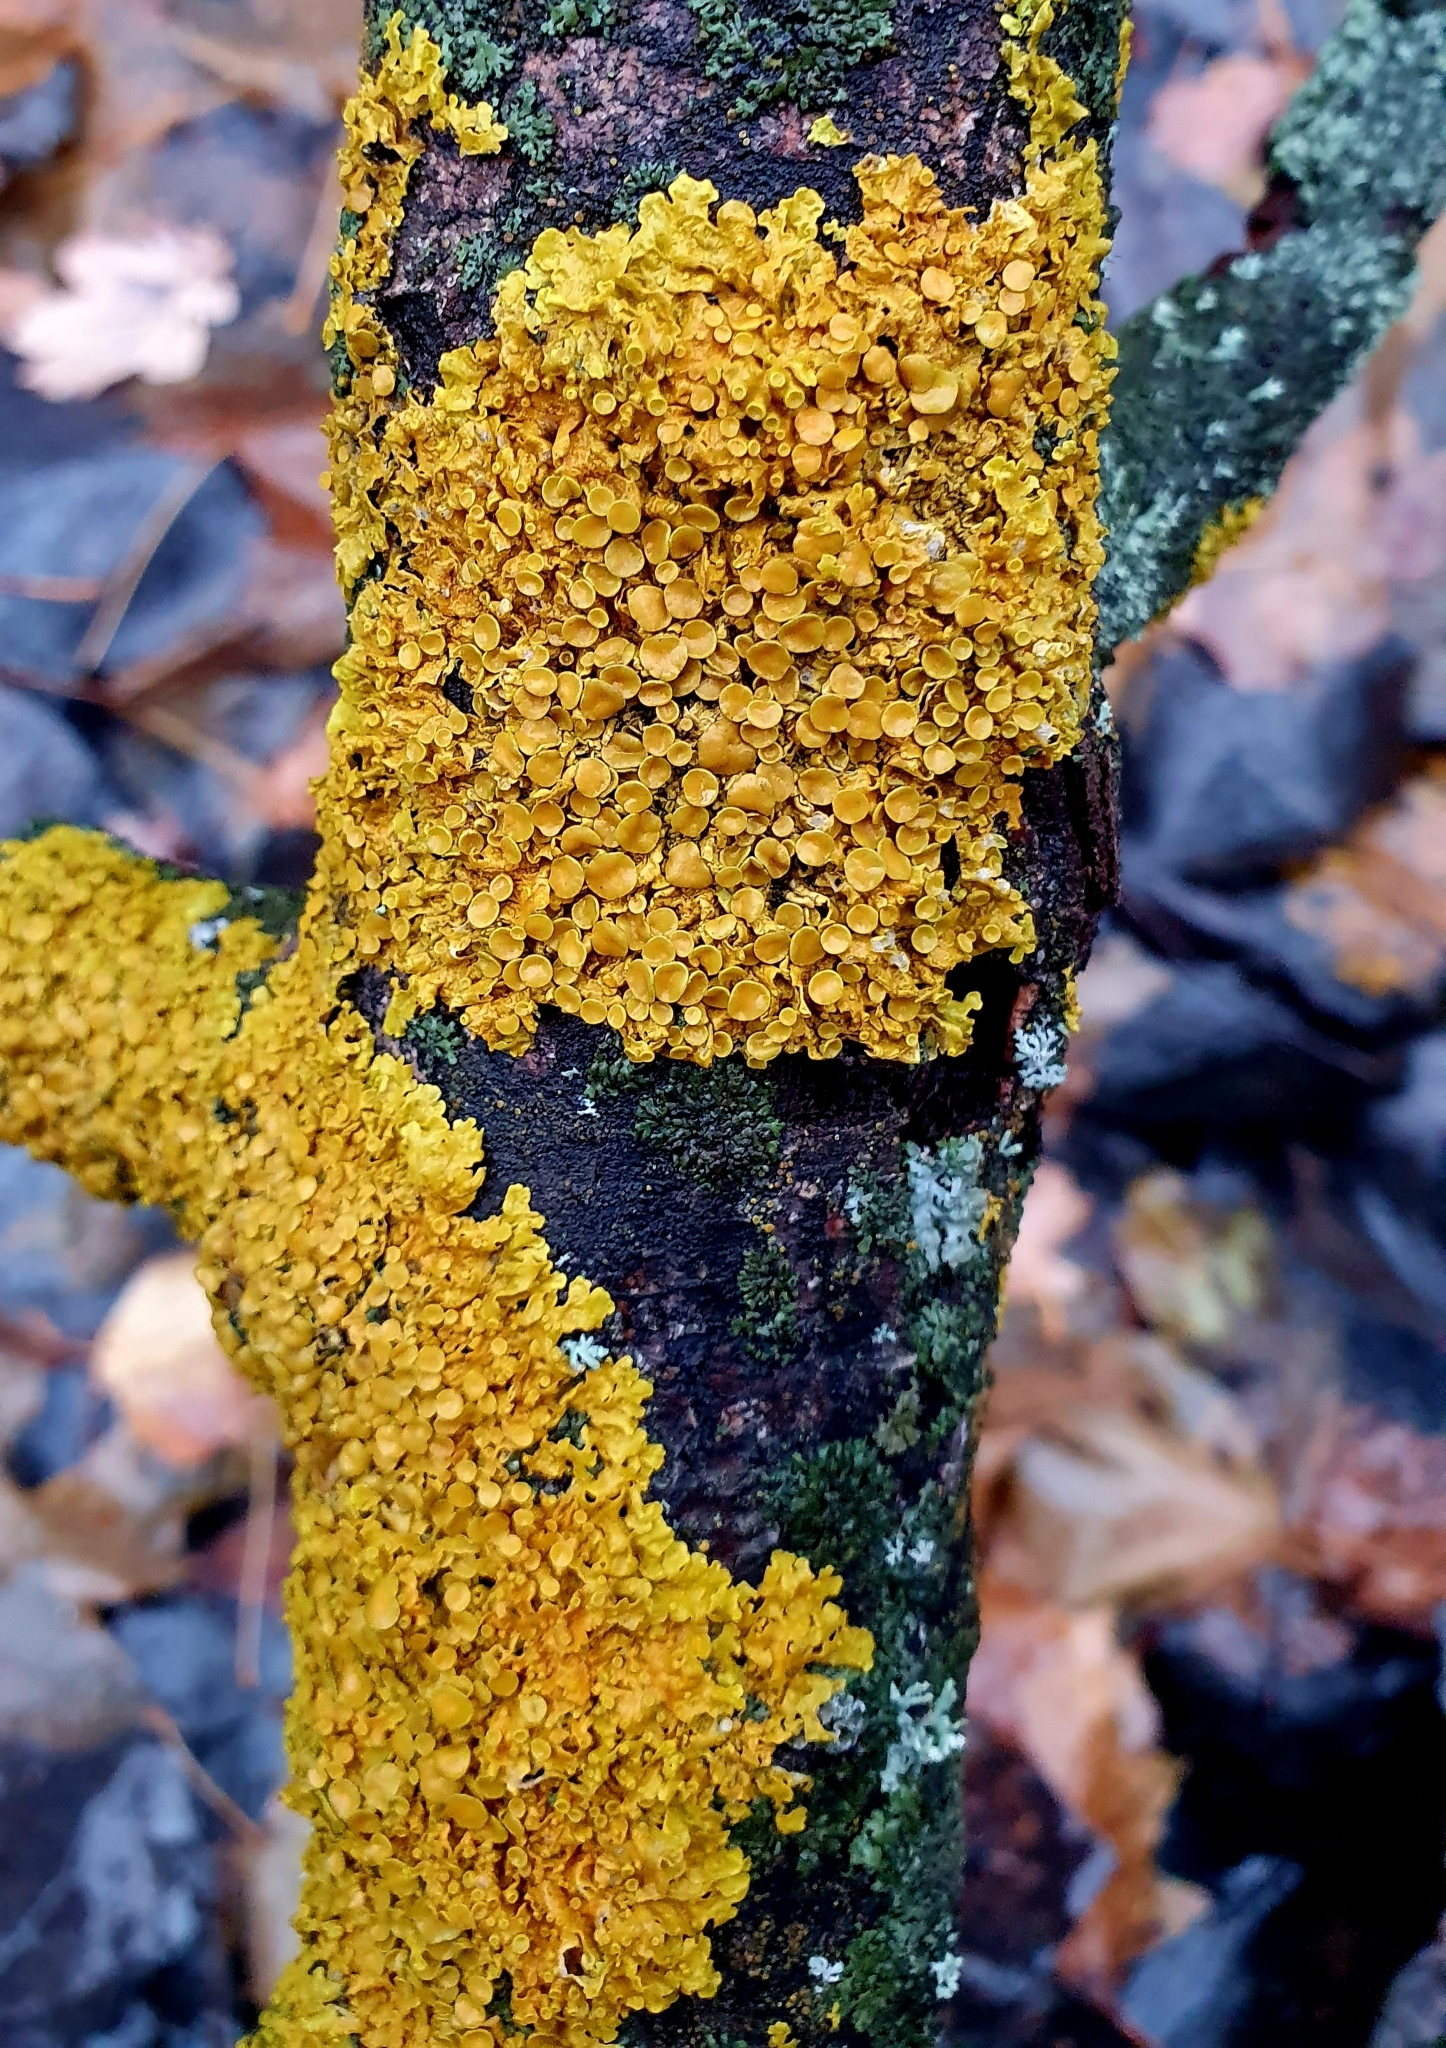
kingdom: Fungi
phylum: Ascomycota
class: Lecanoromycetes
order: Teloschistales
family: Teloschistaceae
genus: Xanthoria
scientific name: Xanthoria parietina
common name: Common orange lichen
